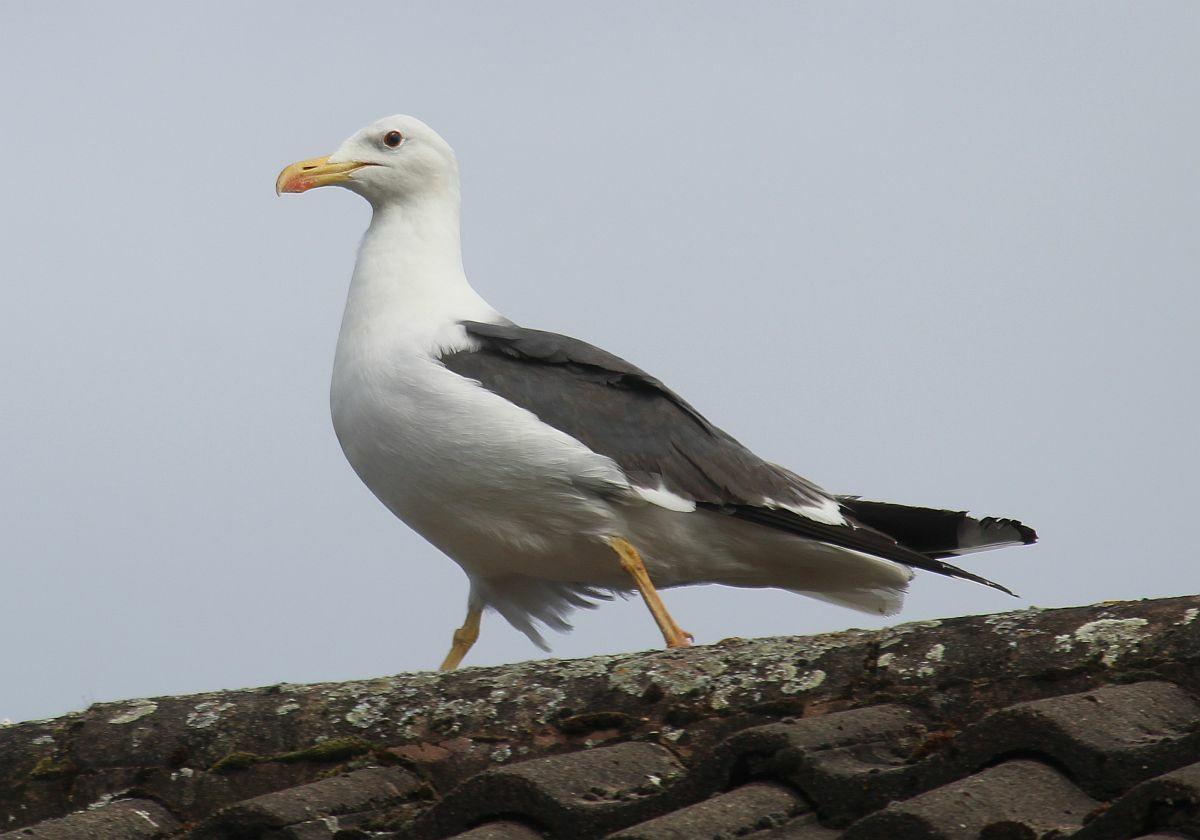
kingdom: Animalia
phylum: Chordata
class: Aves
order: Charadriiformes
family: Laridae
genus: Larus
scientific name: Larus fuscus
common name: Lesser black-backed gull
